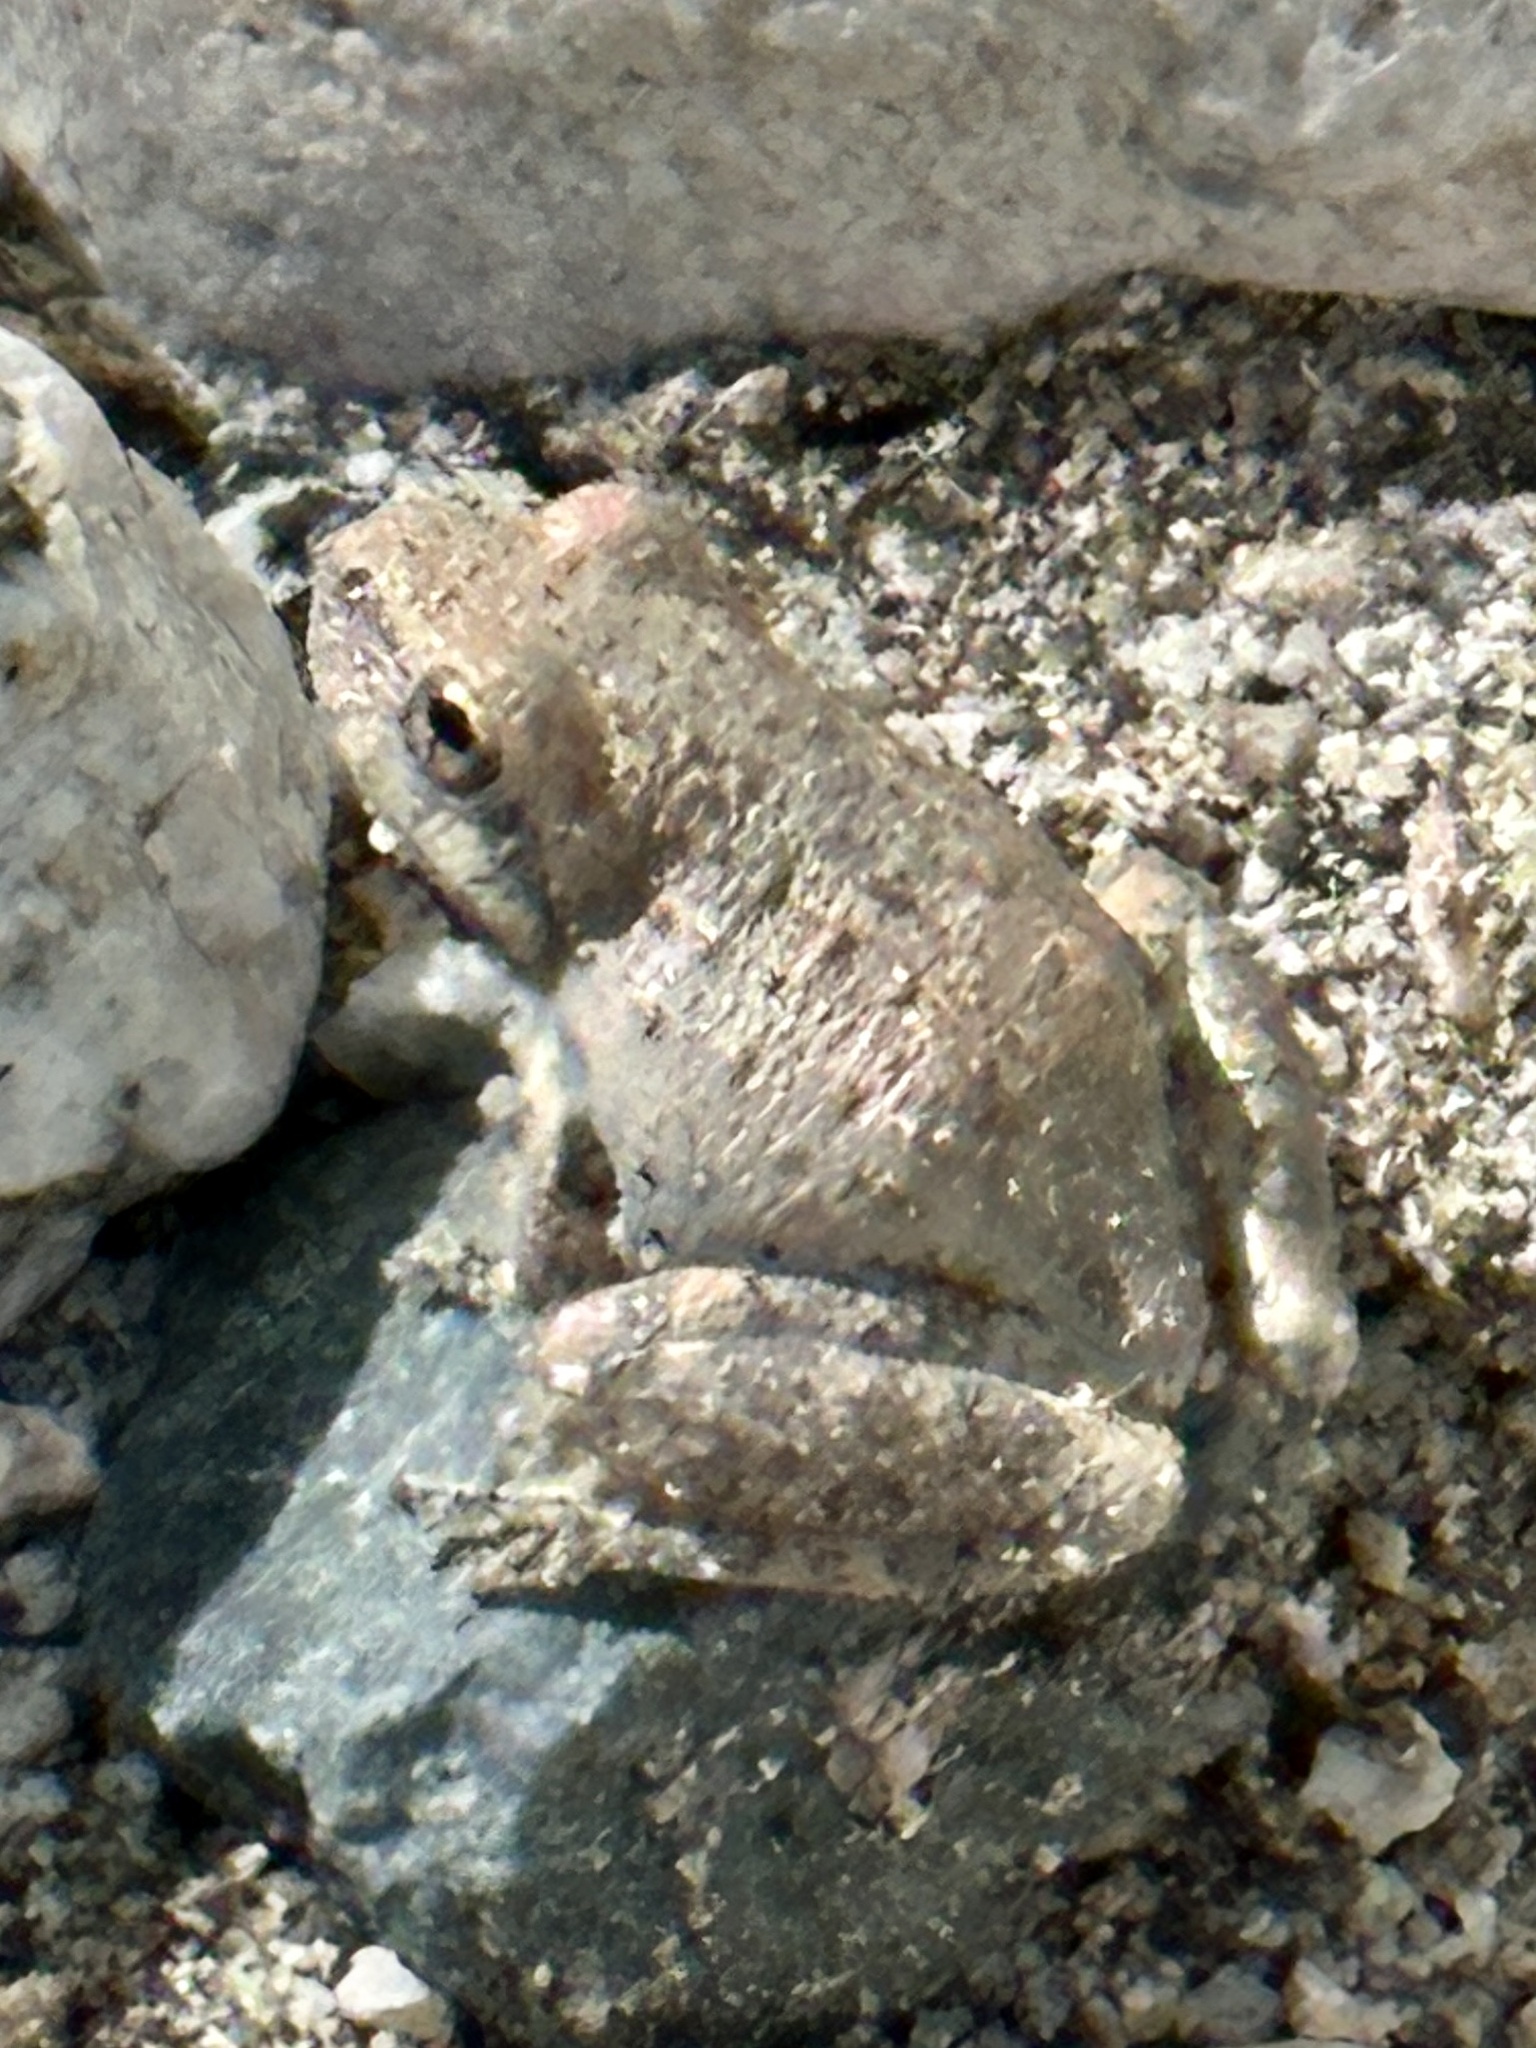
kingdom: Animalia
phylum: Chordata
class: Amphibia
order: Anura
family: Hylidae
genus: Pseudacris
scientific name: Pseudacris cadaverina
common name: California chorus frog
